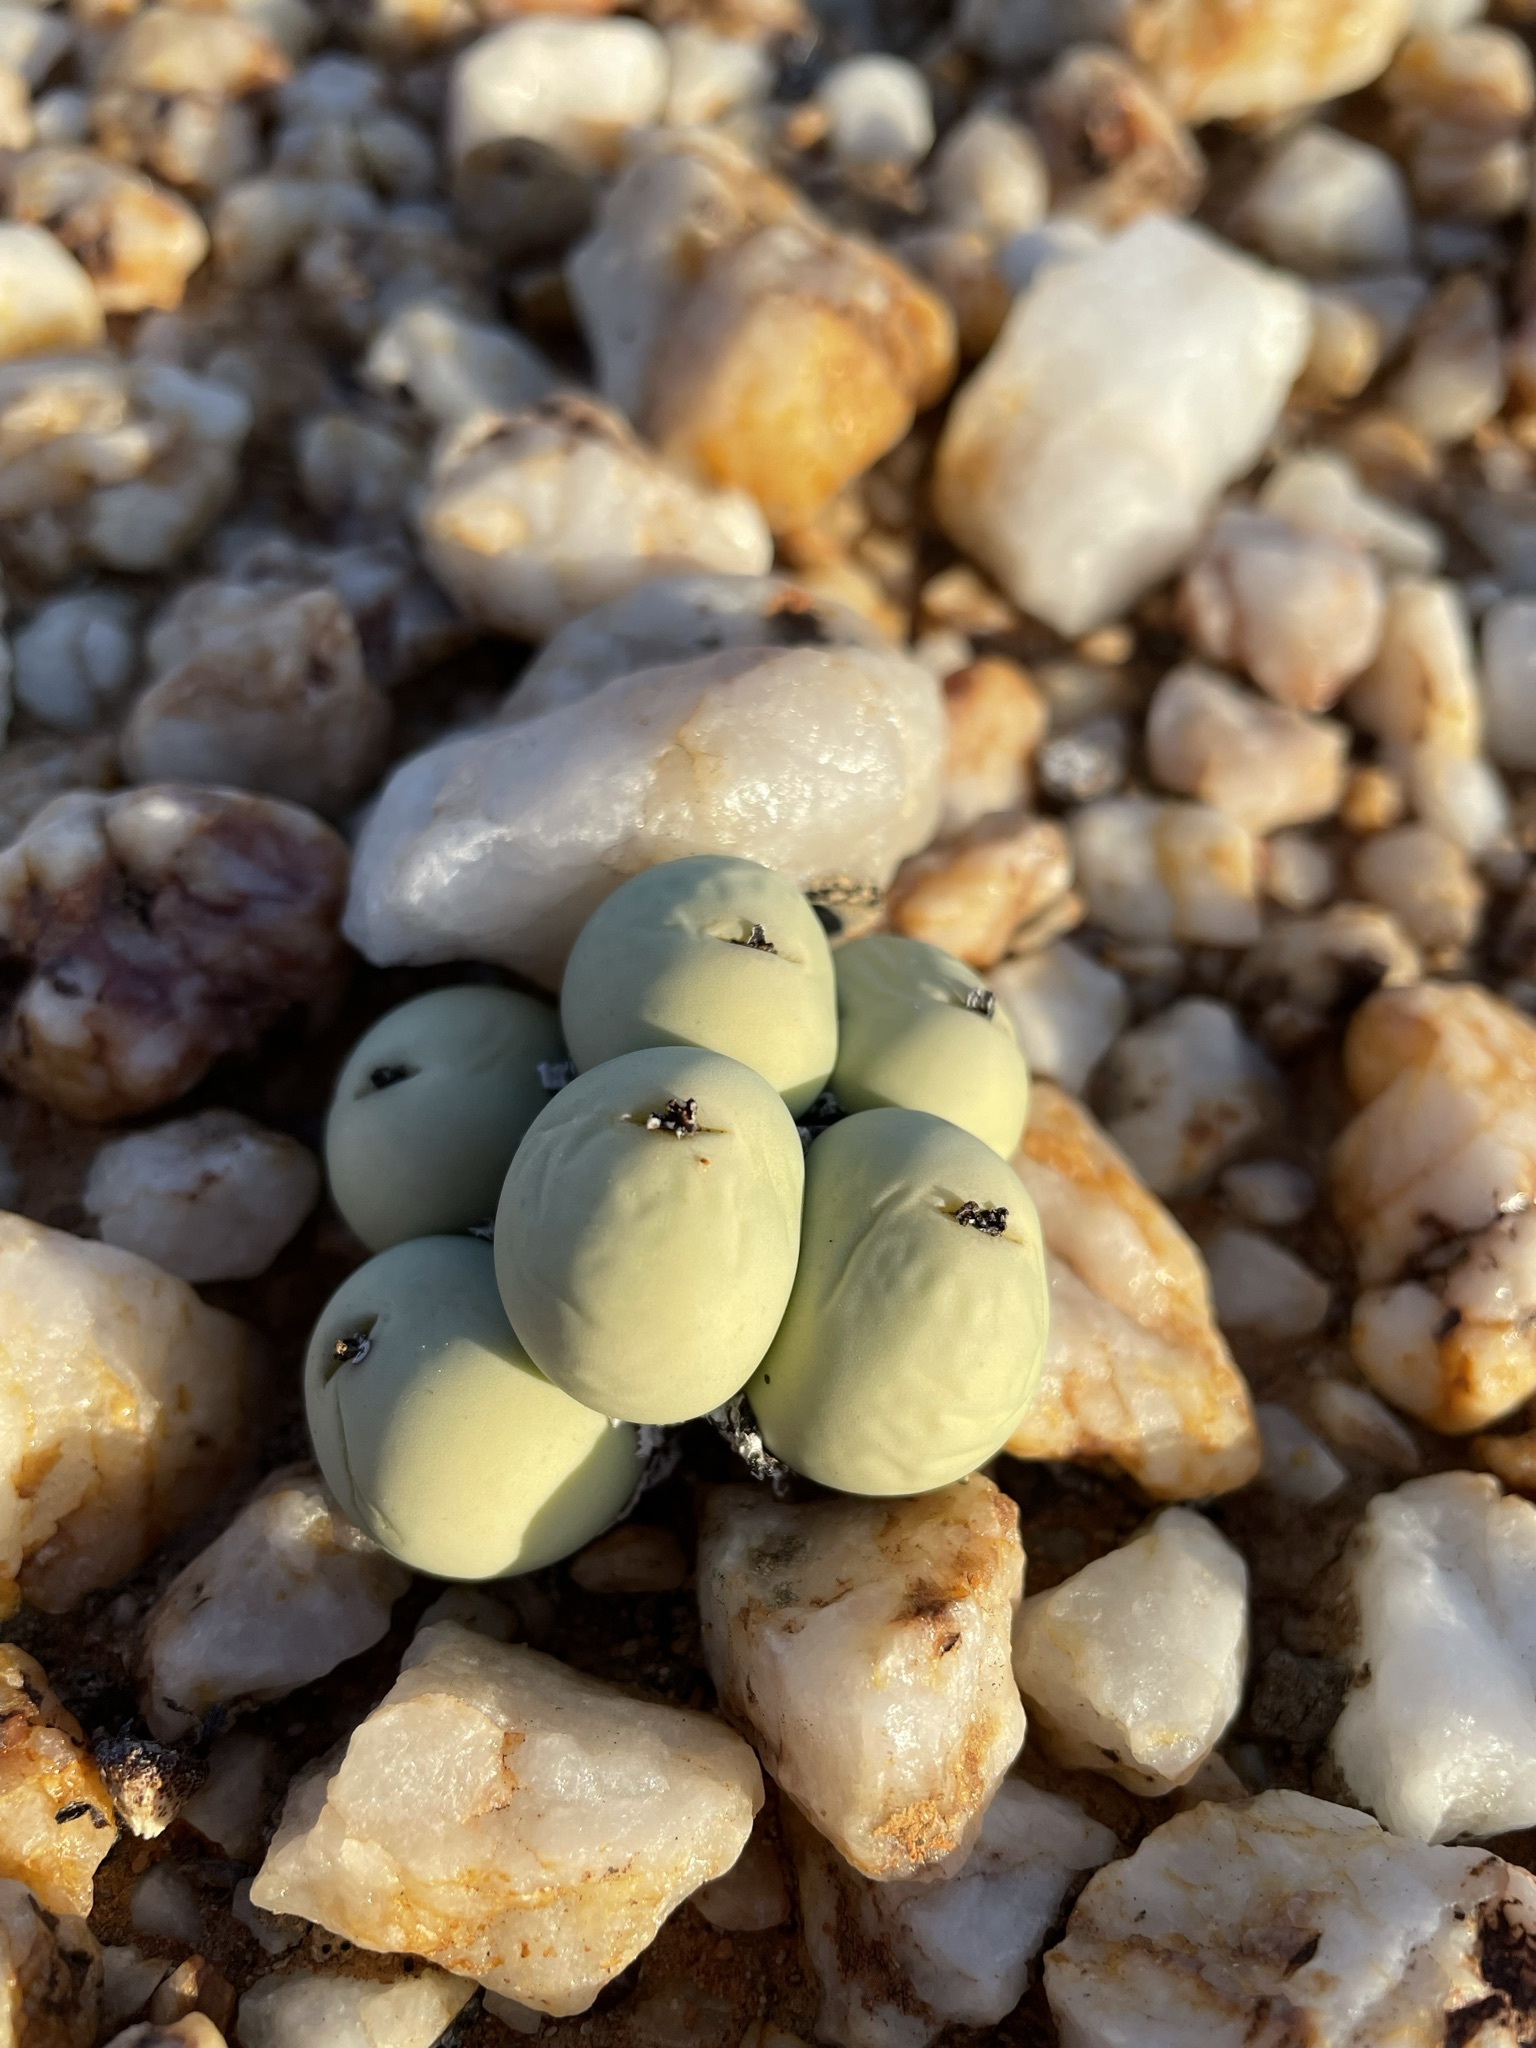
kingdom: Plantae
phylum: Tracheophyta
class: Magnoliopsida
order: Caryophyllales
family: Aizoaceae
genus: Conophytum
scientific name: Conophytum calculus
